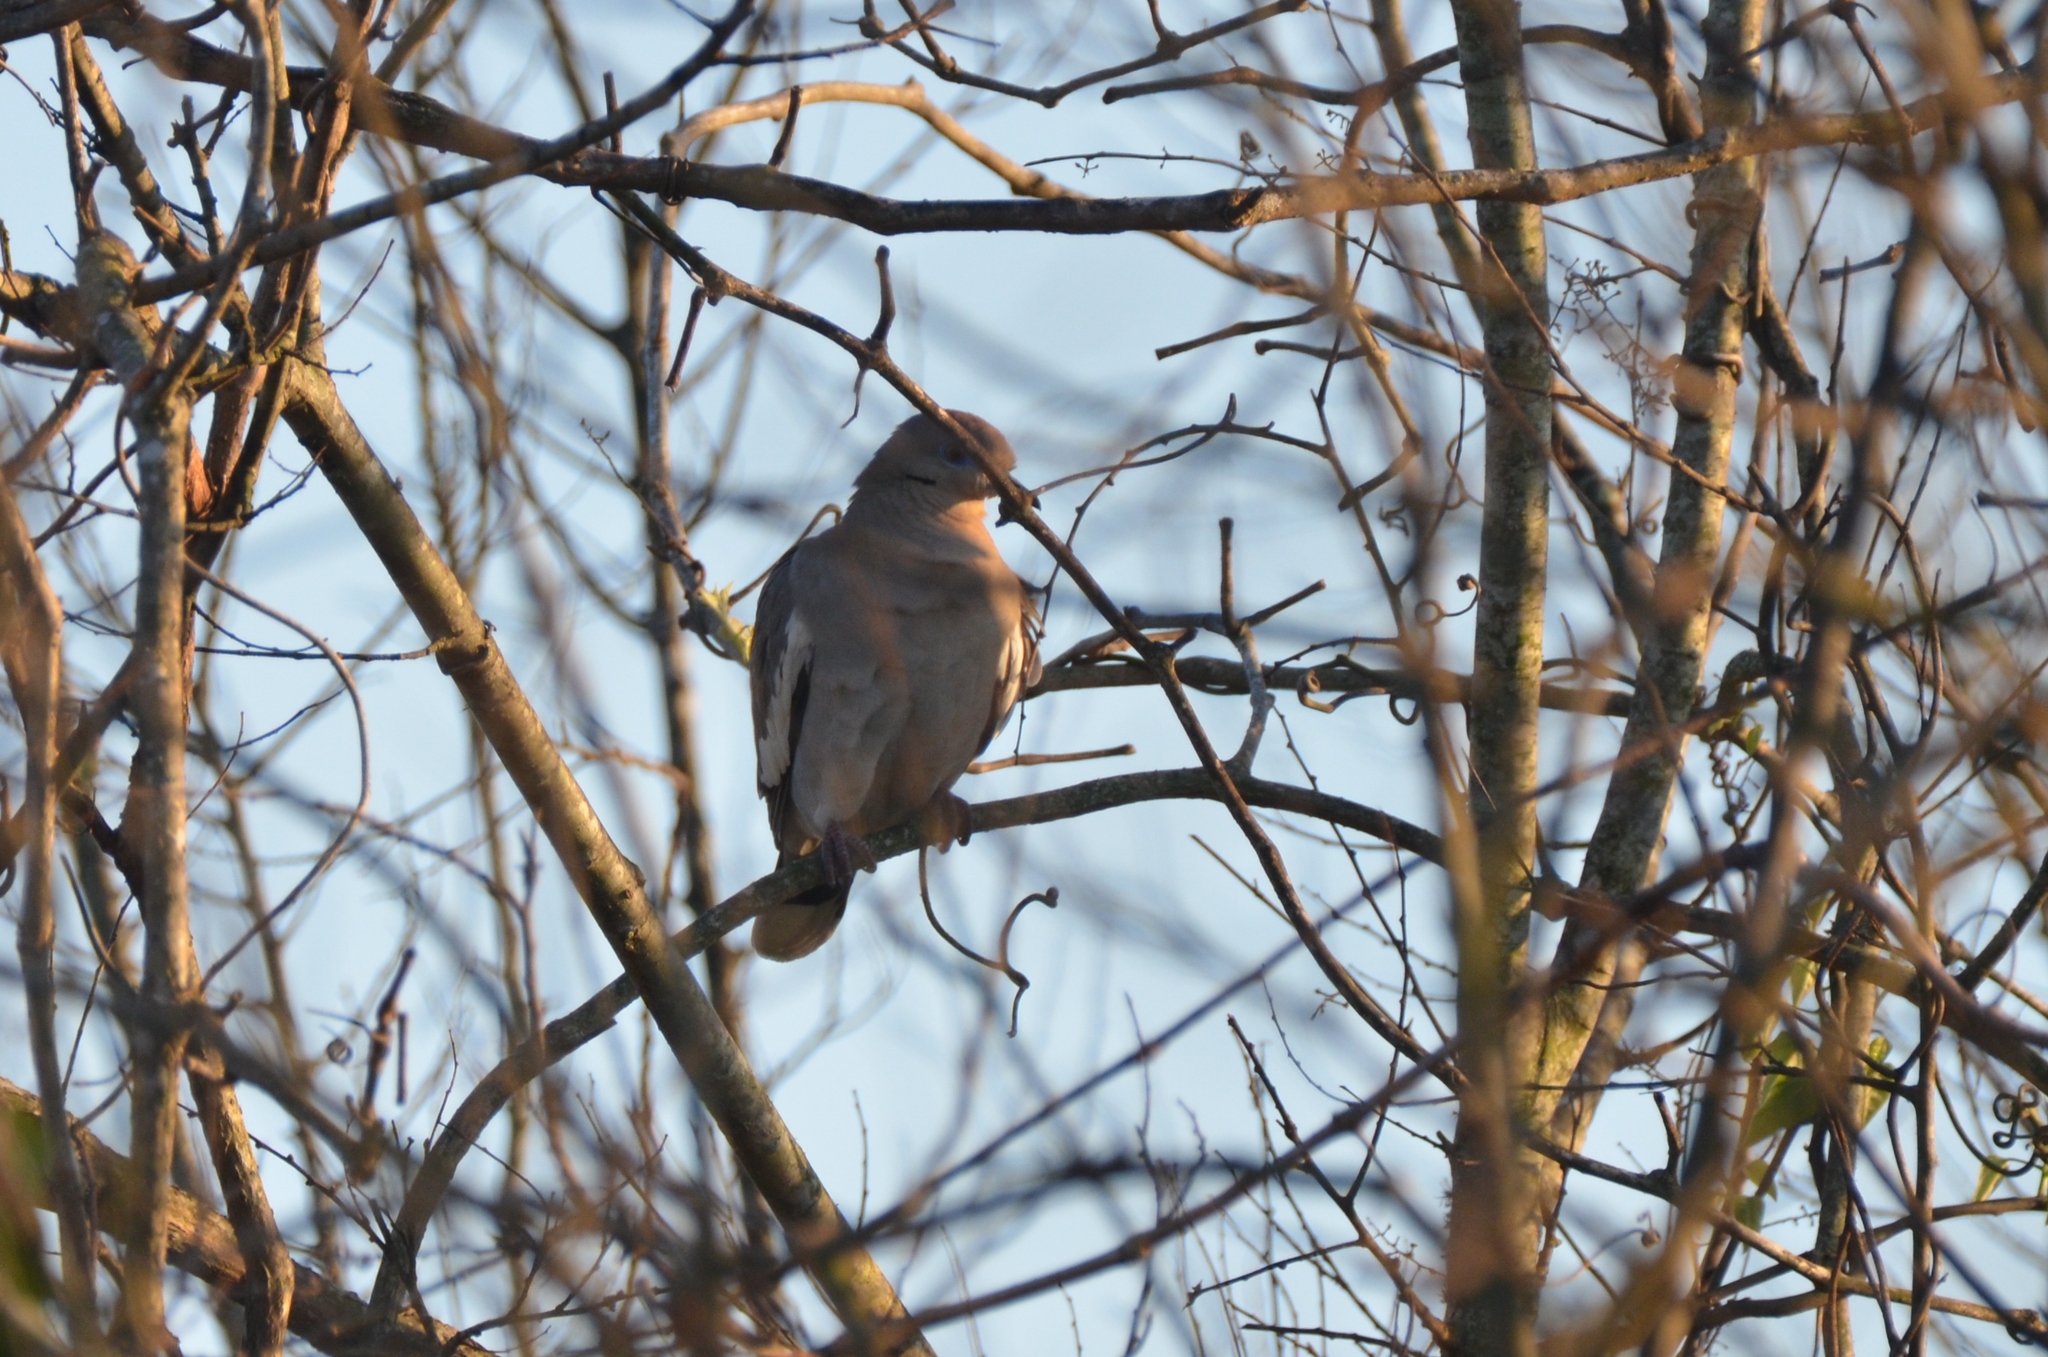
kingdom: Animalia
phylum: Chordata
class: Aves
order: Columbiformes
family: Columbidae
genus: Zenaida
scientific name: Zenaida asiatica
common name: White-winged dove
